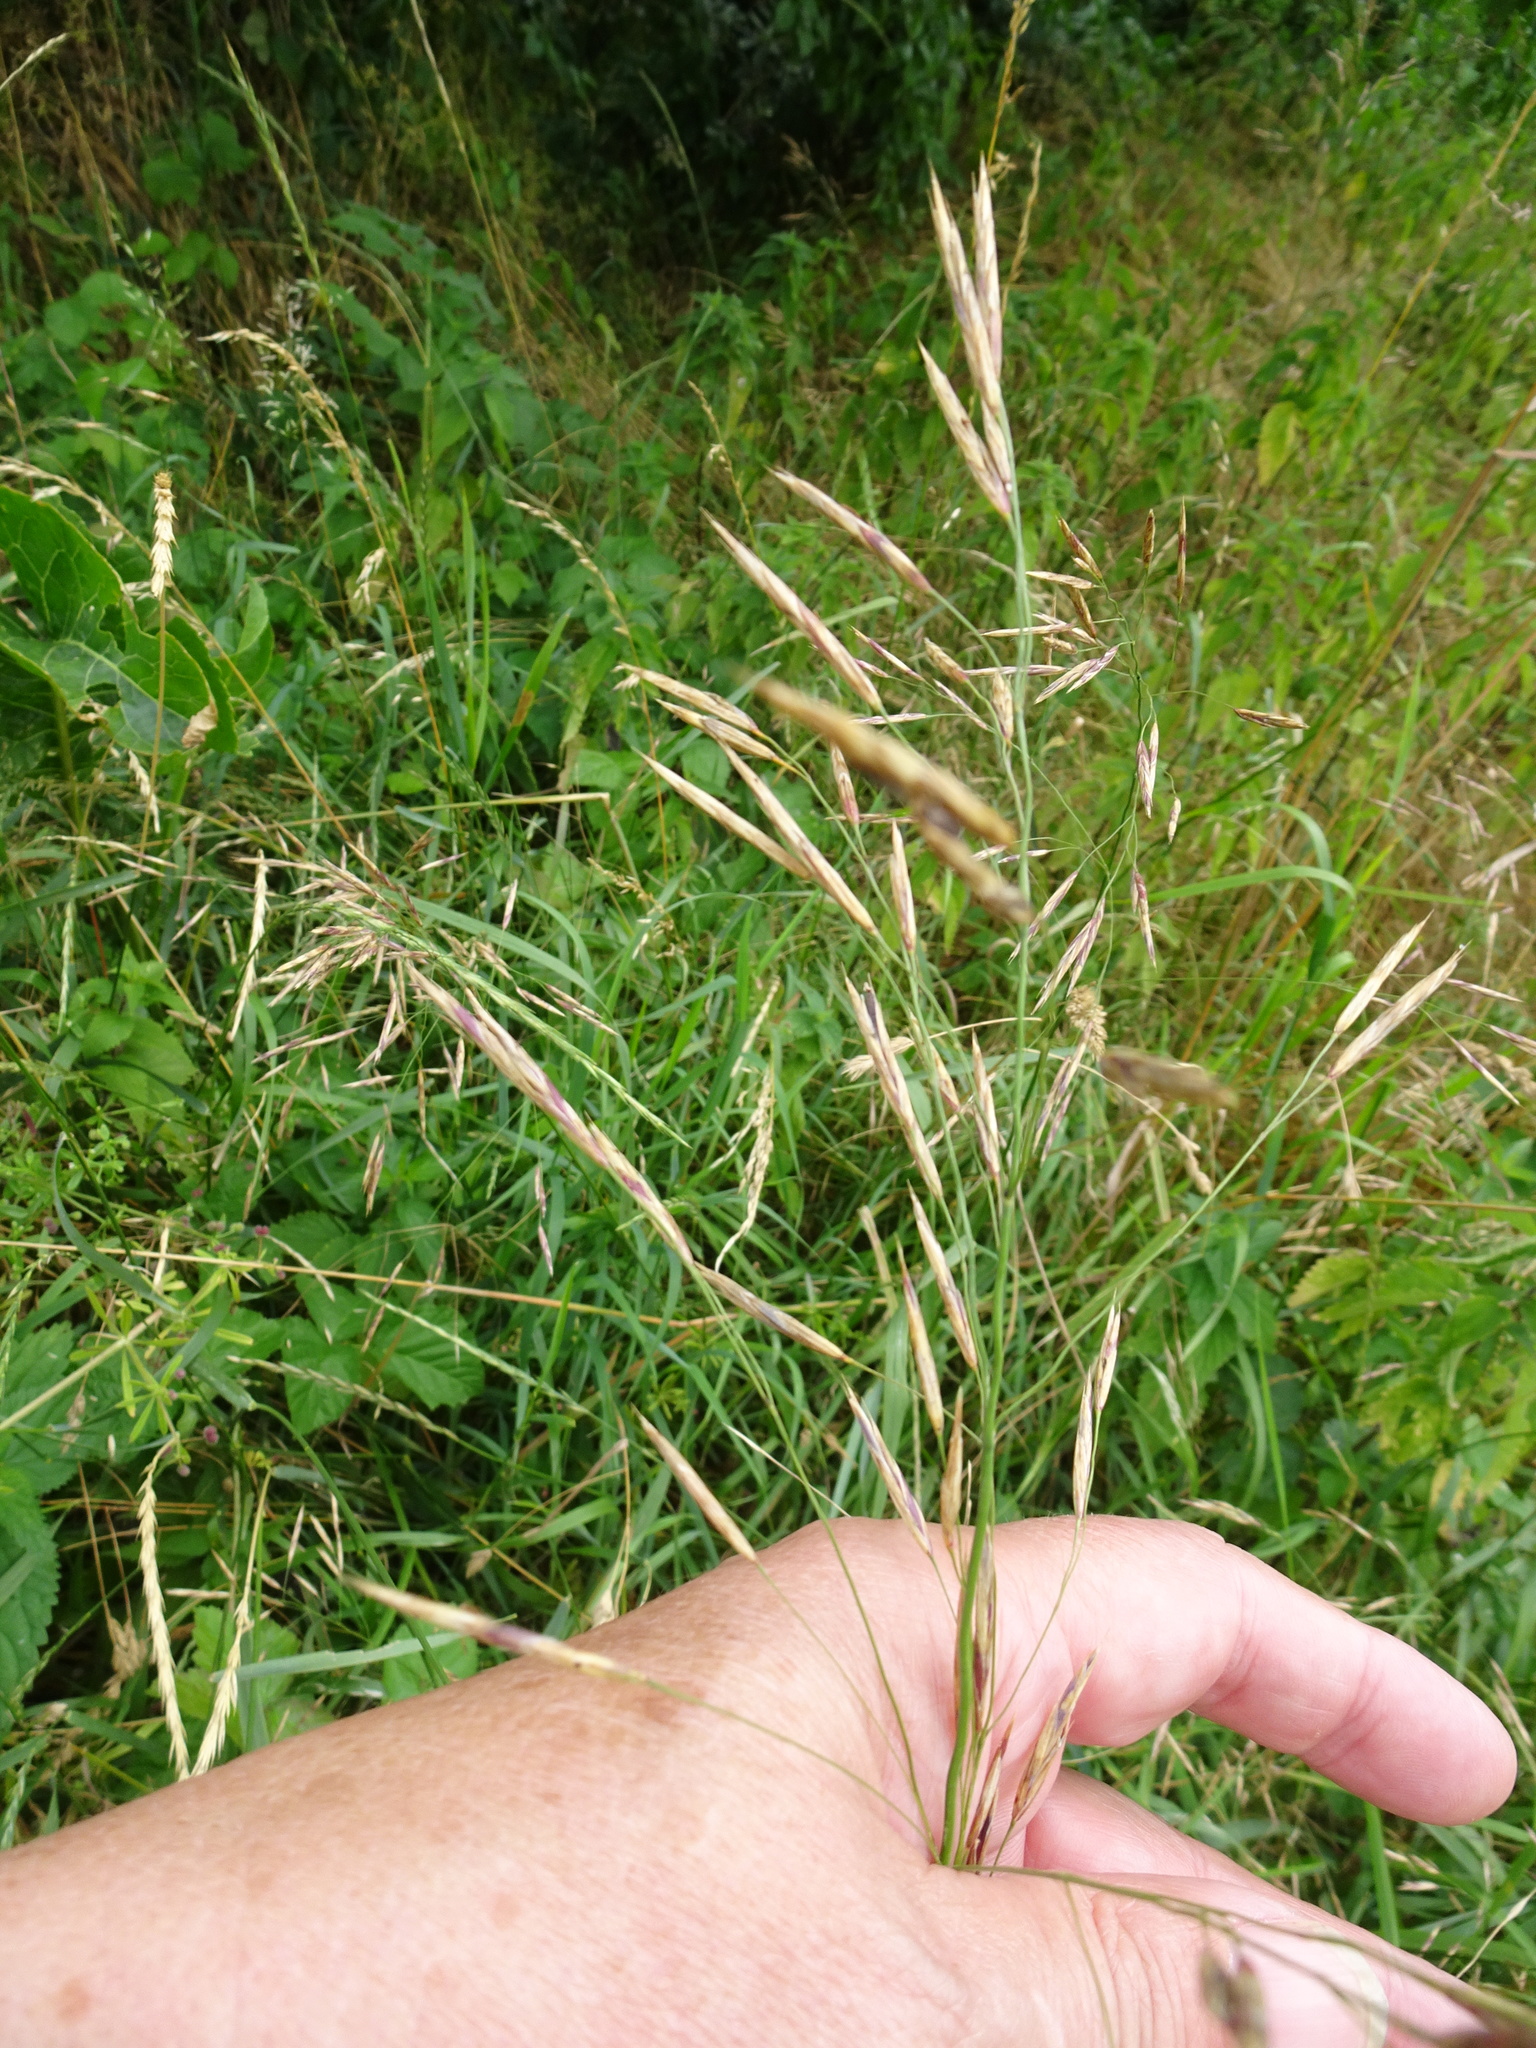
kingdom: Plantae
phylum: Tracheophyta
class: Liliopsida
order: Poales
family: Poaceae
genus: Bromus
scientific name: Bromus inermis
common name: Smooth brome
